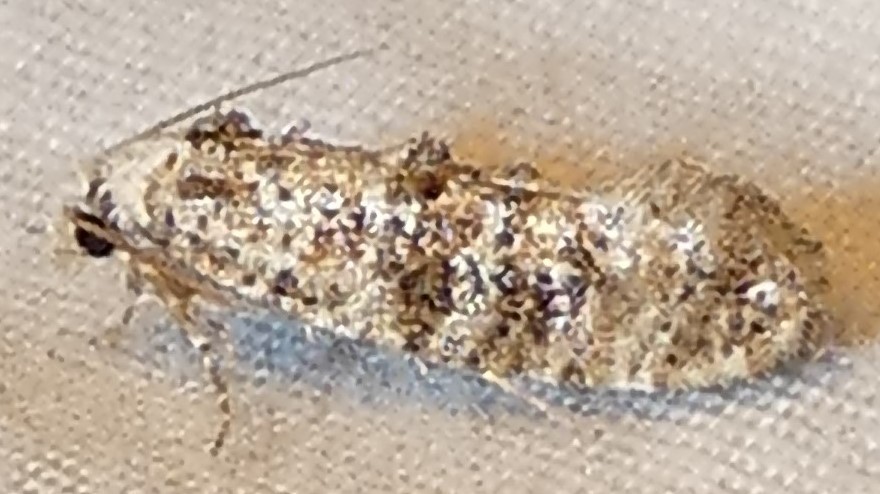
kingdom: Animalia
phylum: Arthropoda
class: Insecta
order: Lepidoptera
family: Tineidae
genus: Xylesthia
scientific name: Xylesthia pruniramiella
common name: Clemens' bark moth
